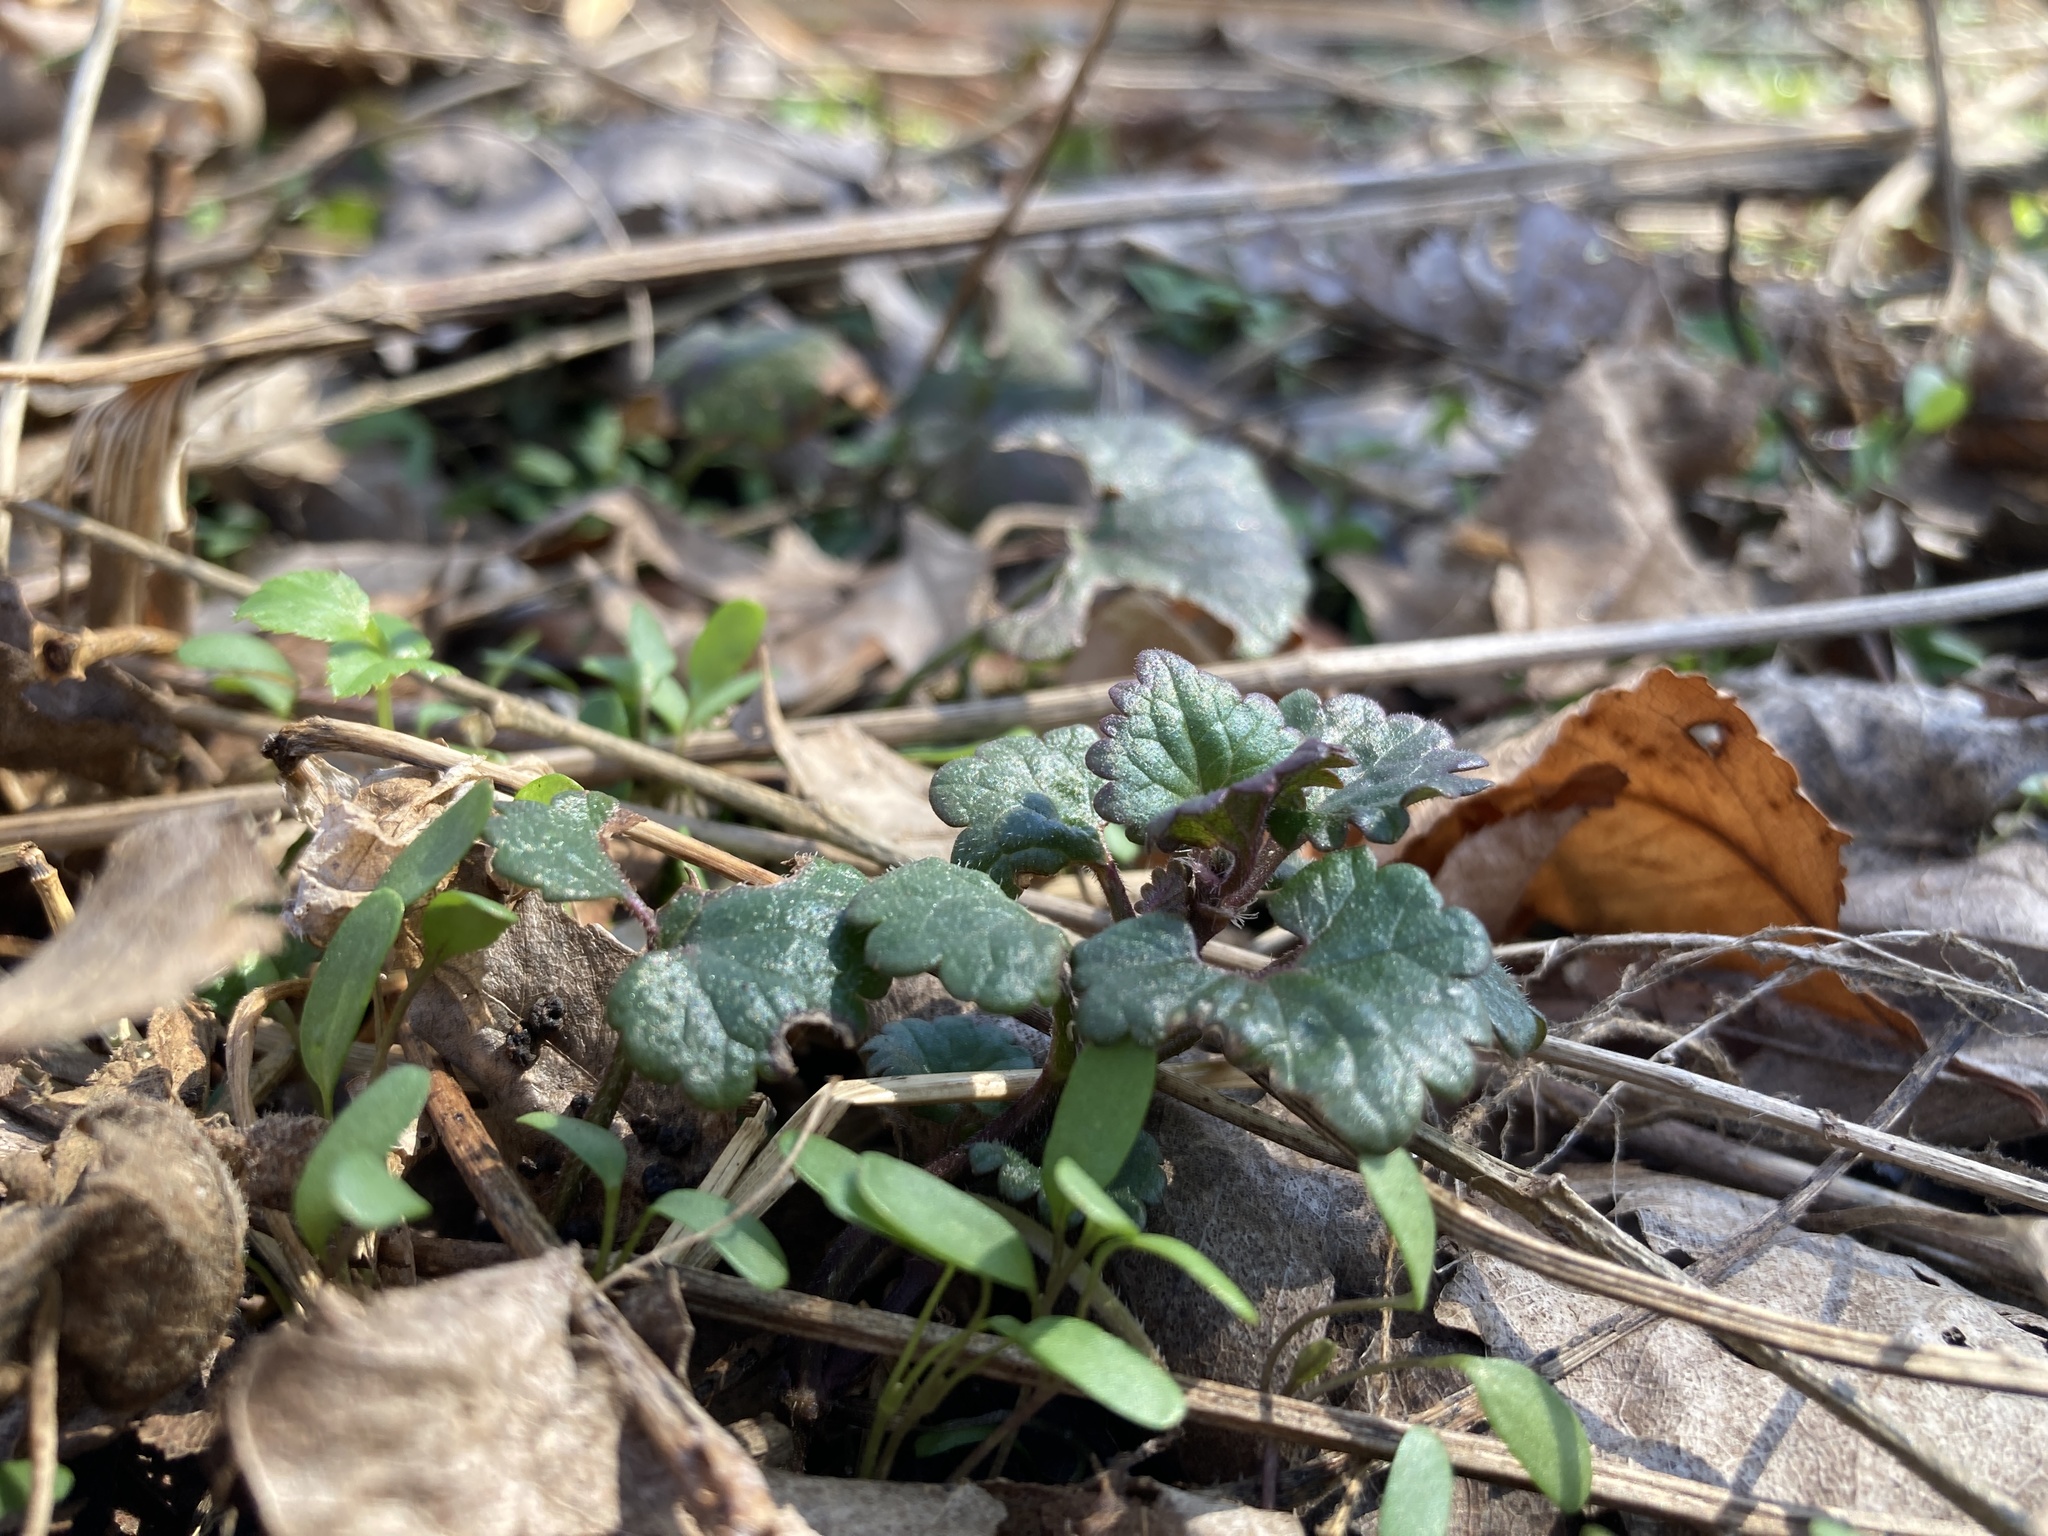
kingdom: Plantae
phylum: Tracheophyta
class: Magnoliopsida
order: Lamiales
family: Lamiaceae
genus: Glechoma
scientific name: Glechoma hederacea
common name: Ground ivy
